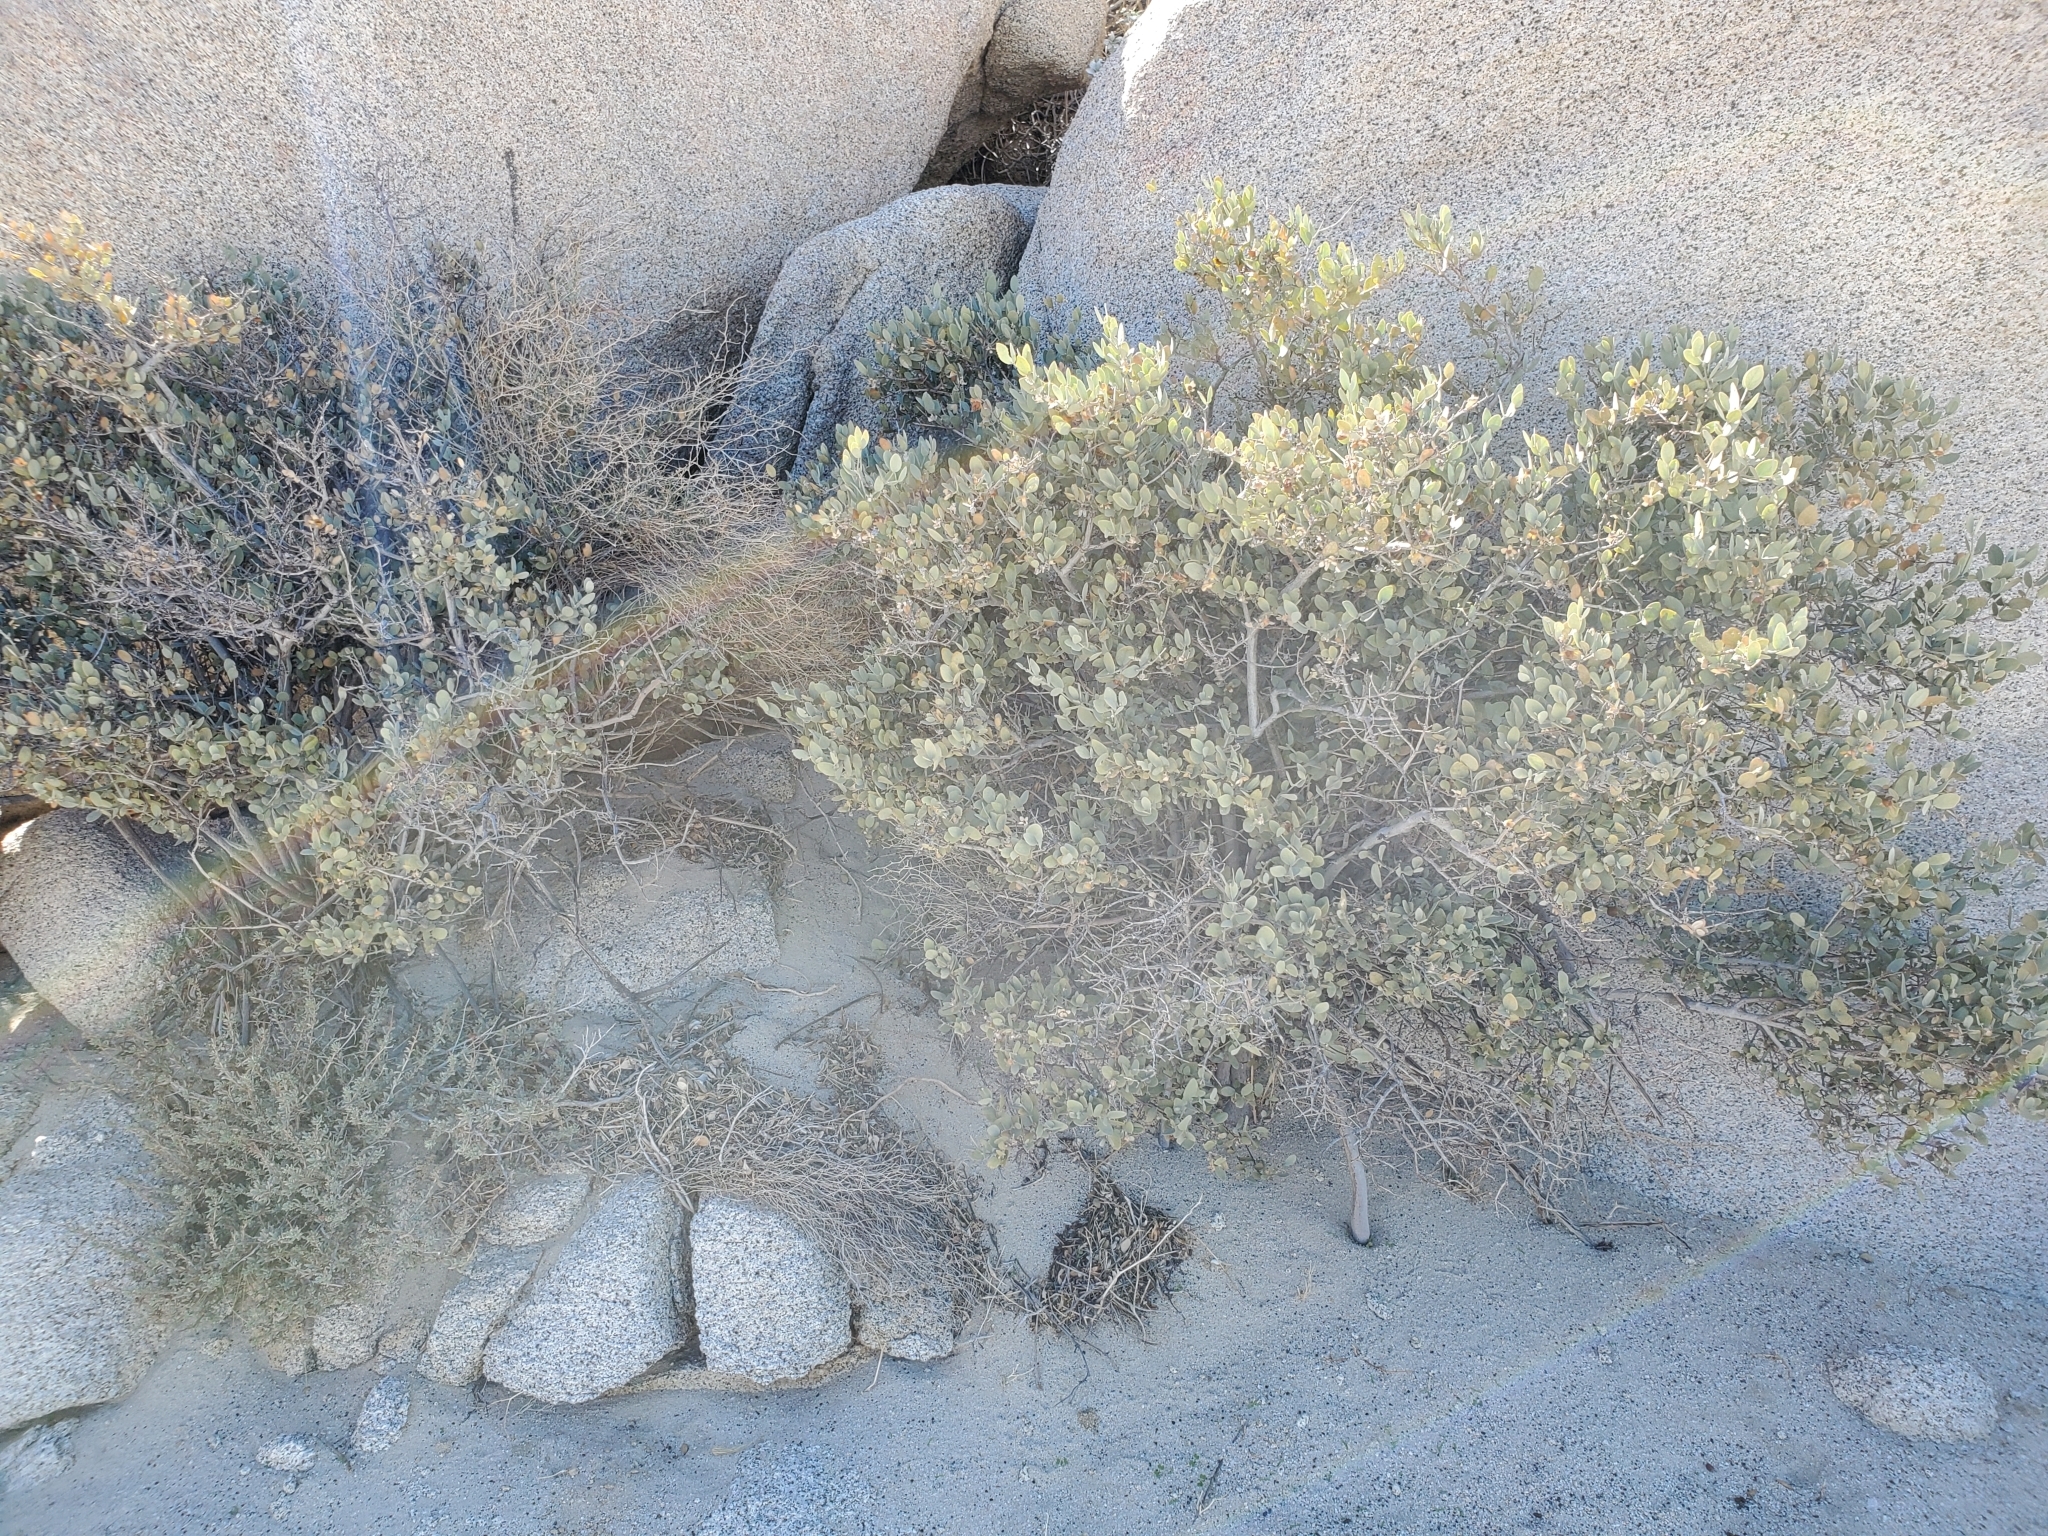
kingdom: Plantae
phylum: Tracheophyta
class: Magnoliopsida
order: Caryophyllales
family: Simmondsiaceae
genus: Simmondsia
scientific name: Simmondsia chinensis
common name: Jojoba
